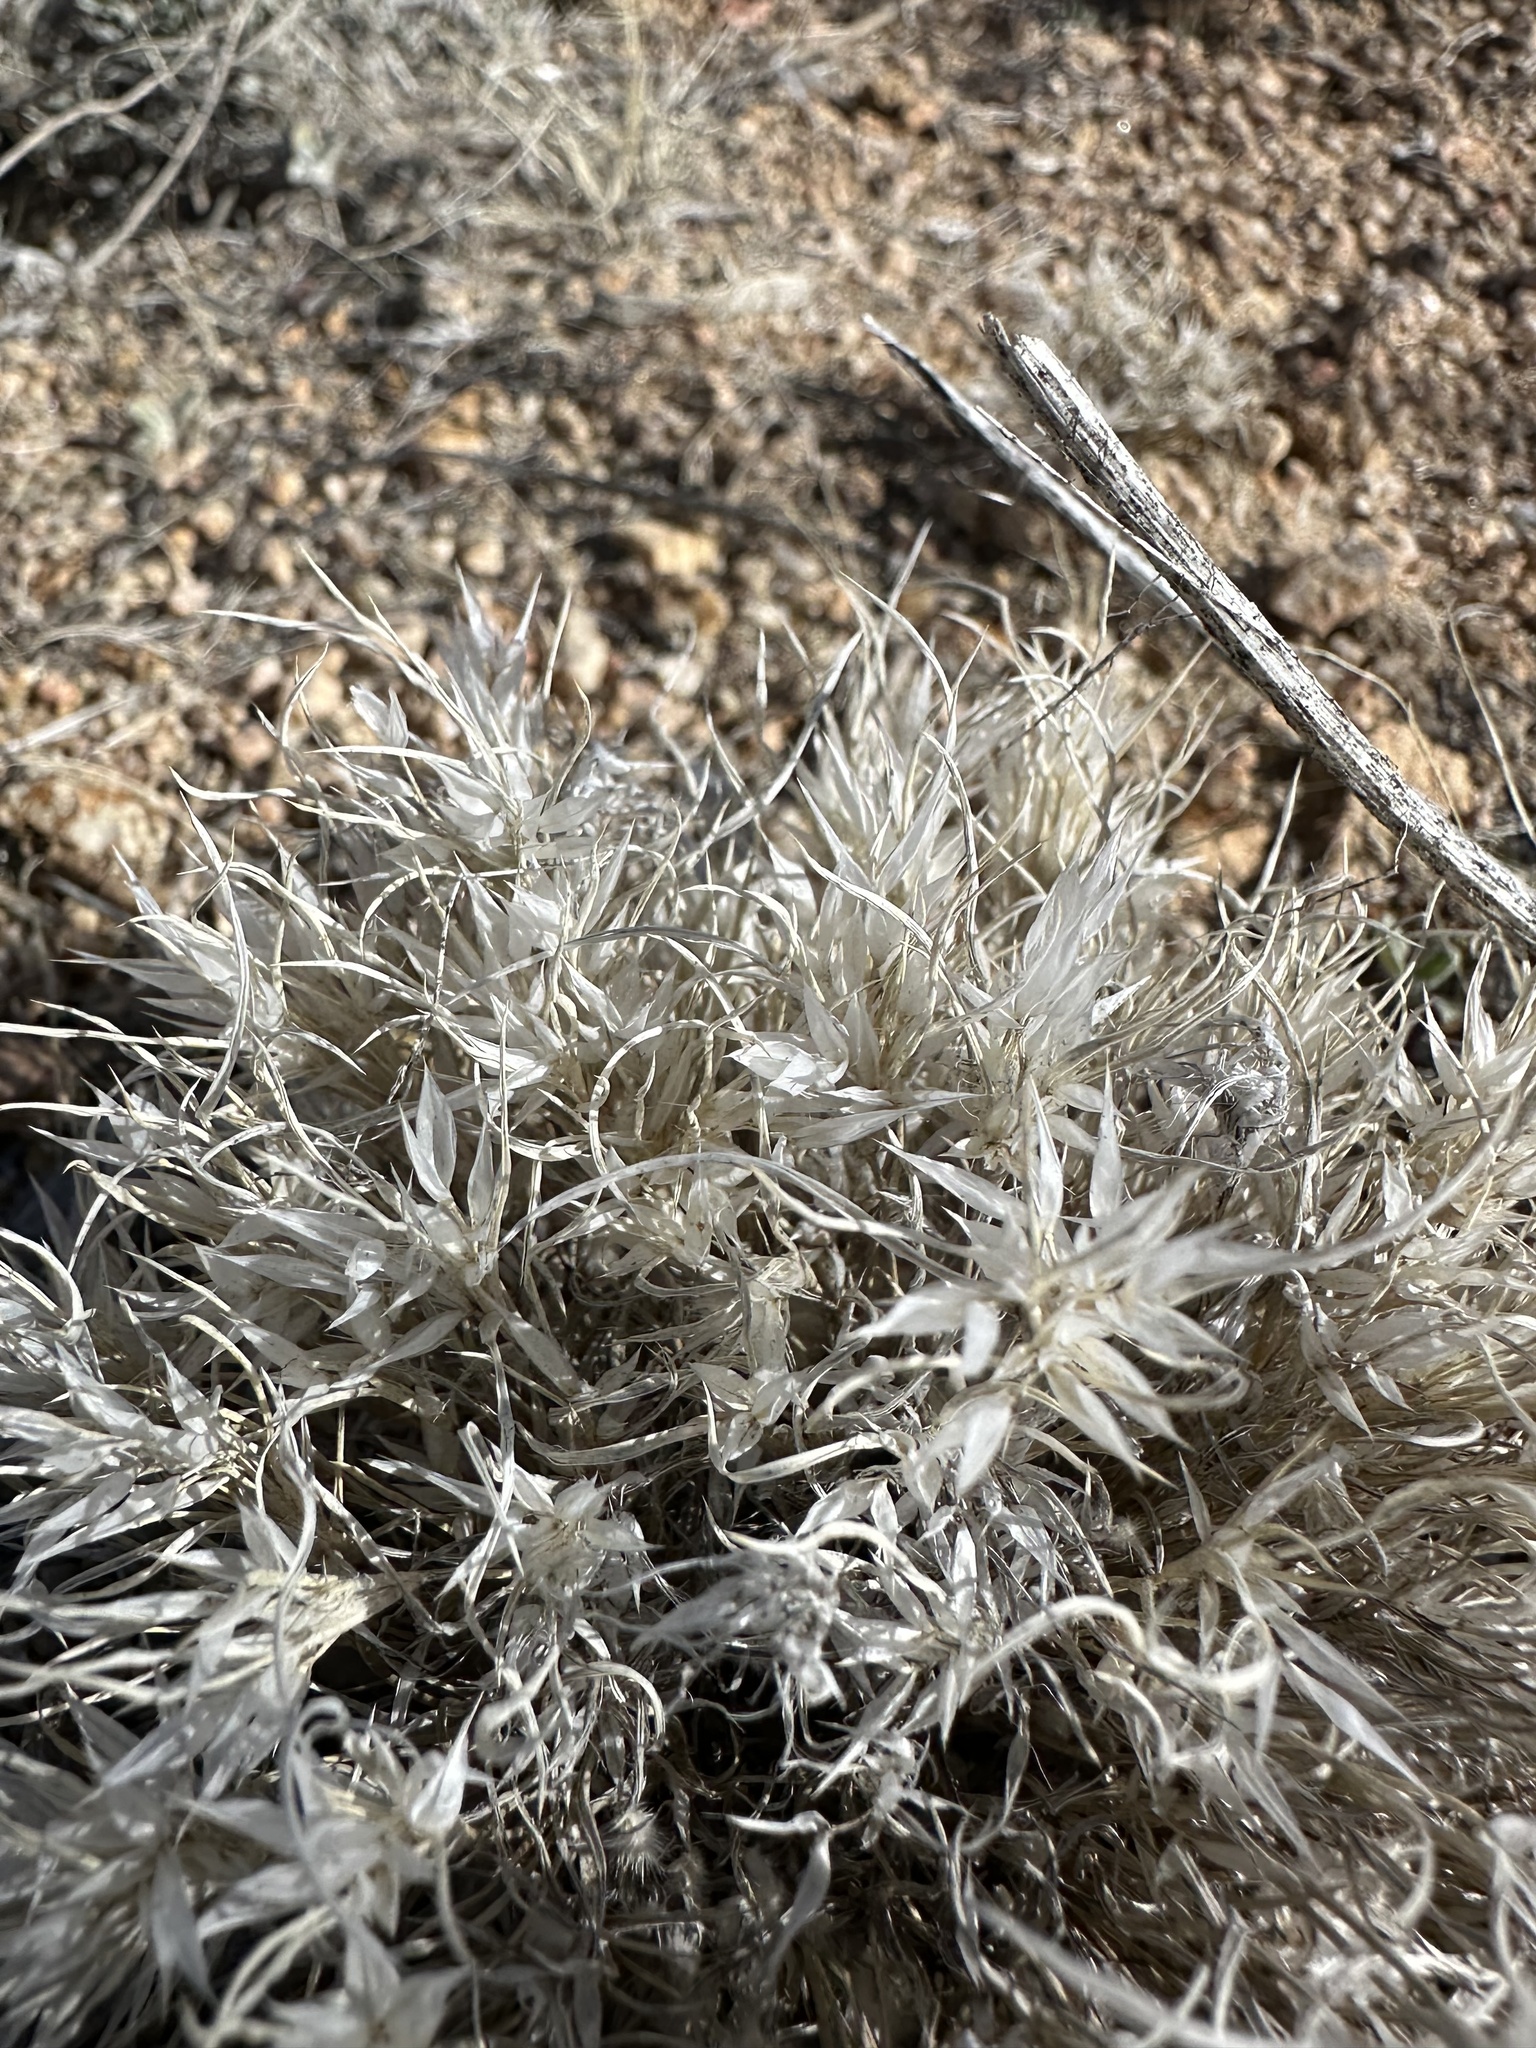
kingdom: Plantae
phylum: Tracheophyta
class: Liliopsida
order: Poales
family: Poaceae
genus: Dasyochloa
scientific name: Dasyochloa pulchella
